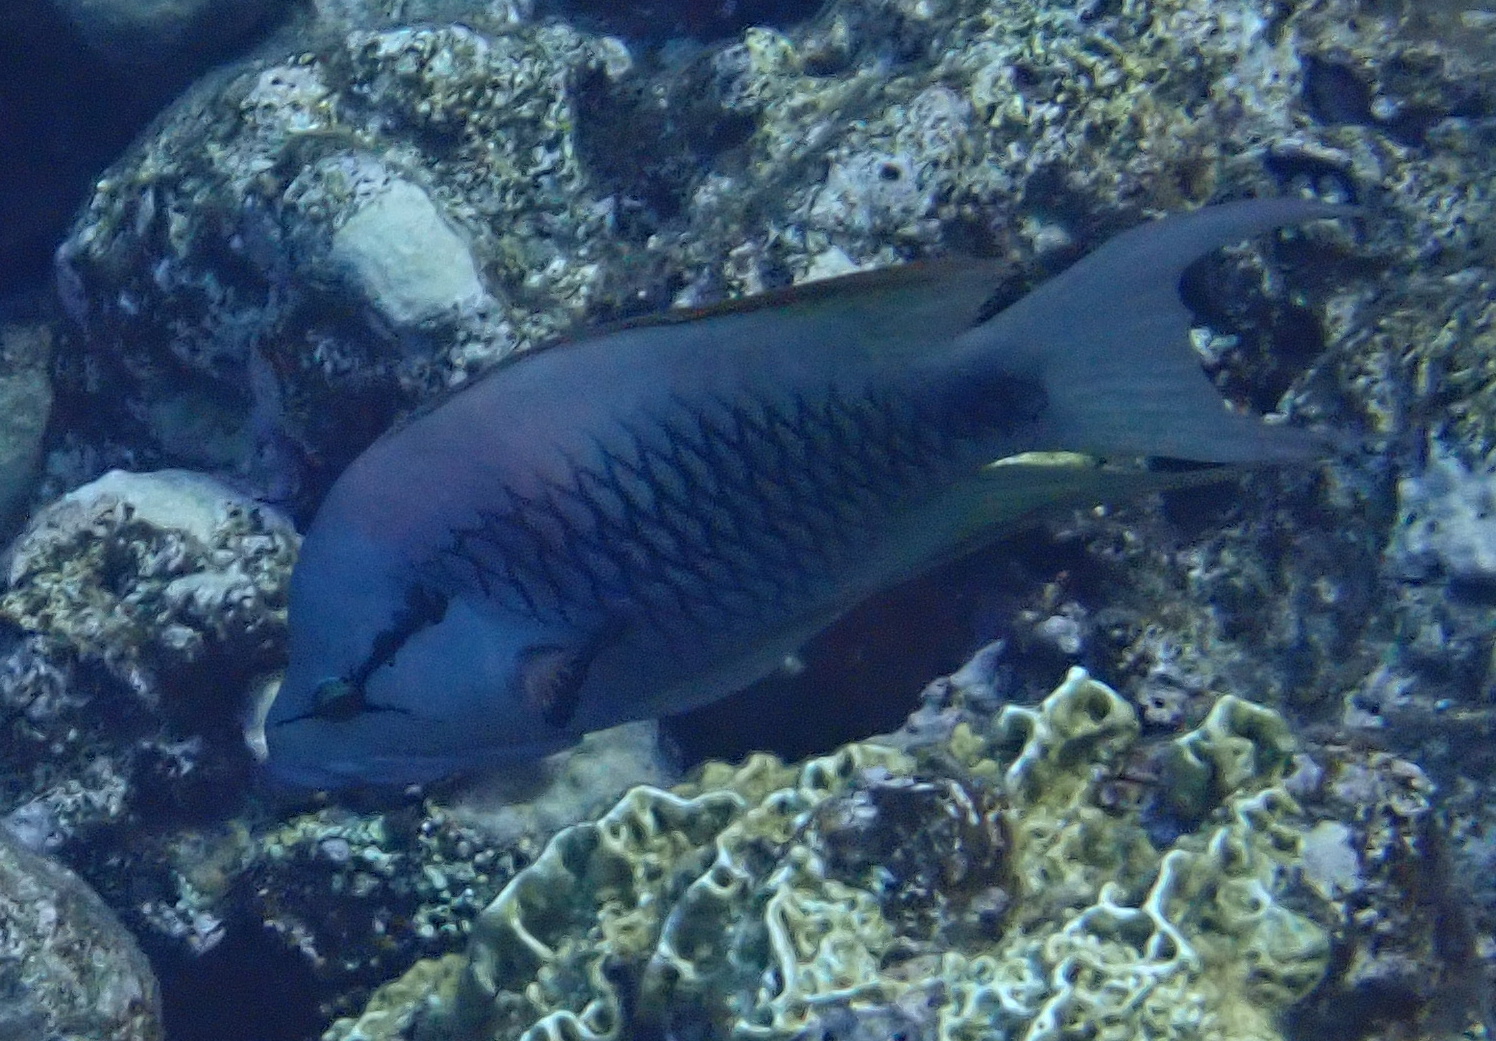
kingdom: Animalia
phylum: Chordata
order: Perciformes
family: Labridae
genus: Epibulus
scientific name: Epibulus insidiator
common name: Slingjaw wrasse
